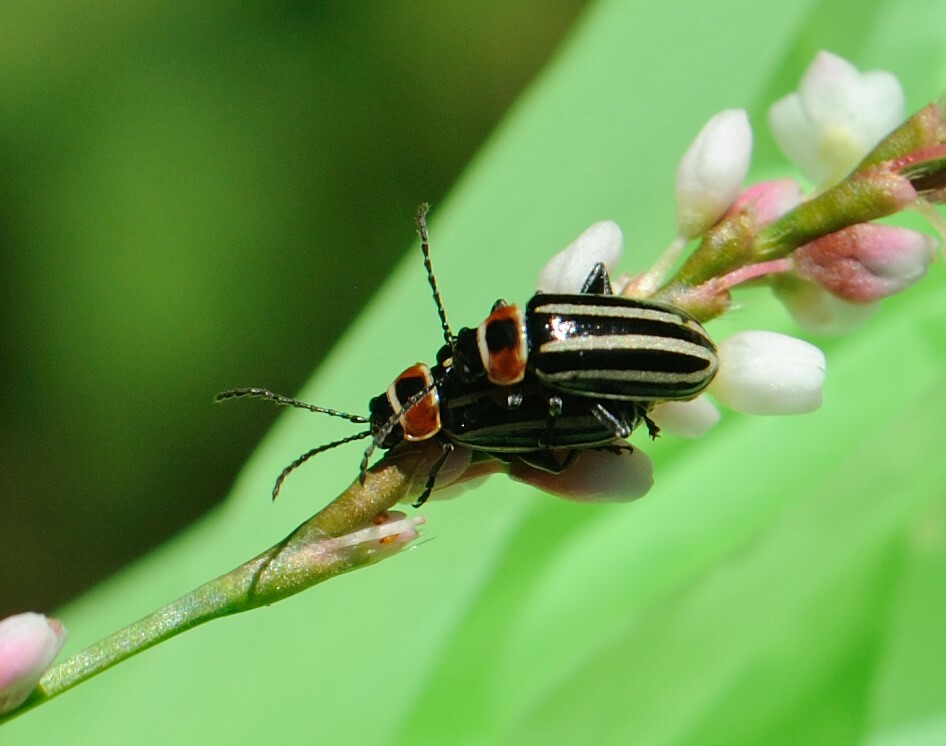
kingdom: Animalia
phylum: Arthropoda
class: Insecta
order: Coleoptera
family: Chrysomelidae
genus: Disonycha
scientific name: Disonycha pensylvanica
